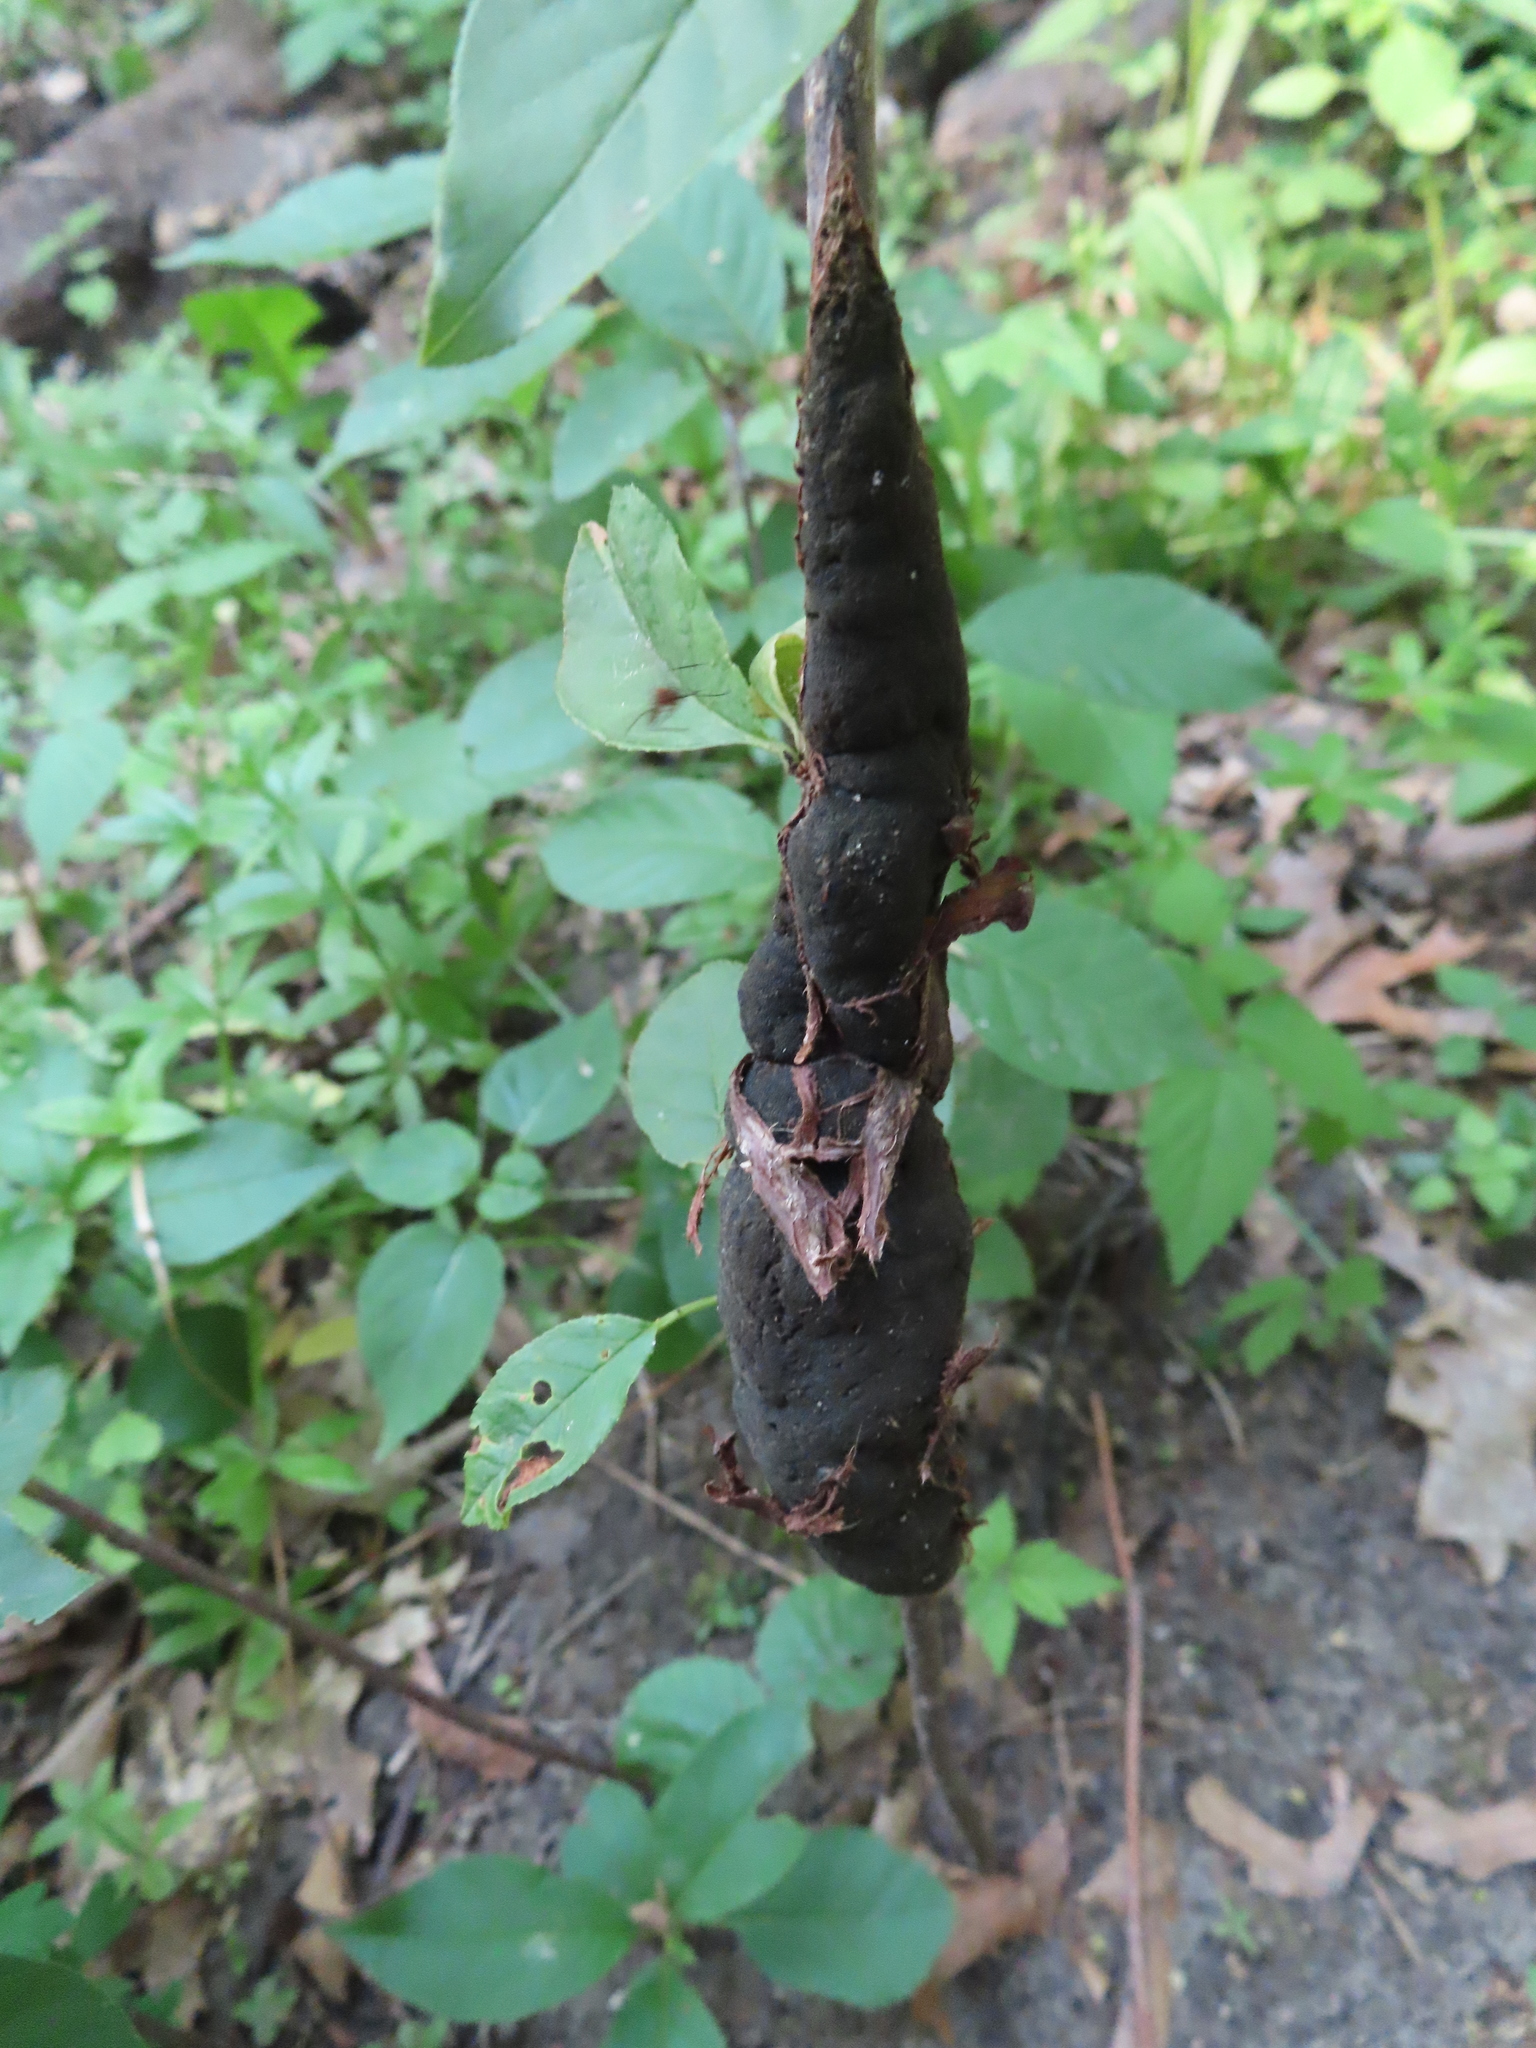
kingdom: Fungi
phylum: Ascomycota
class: Dothideomycetes
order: Venturiales
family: Venturiaceae
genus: Apiosporina
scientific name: Apiosporina morbosa
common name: Black knot
